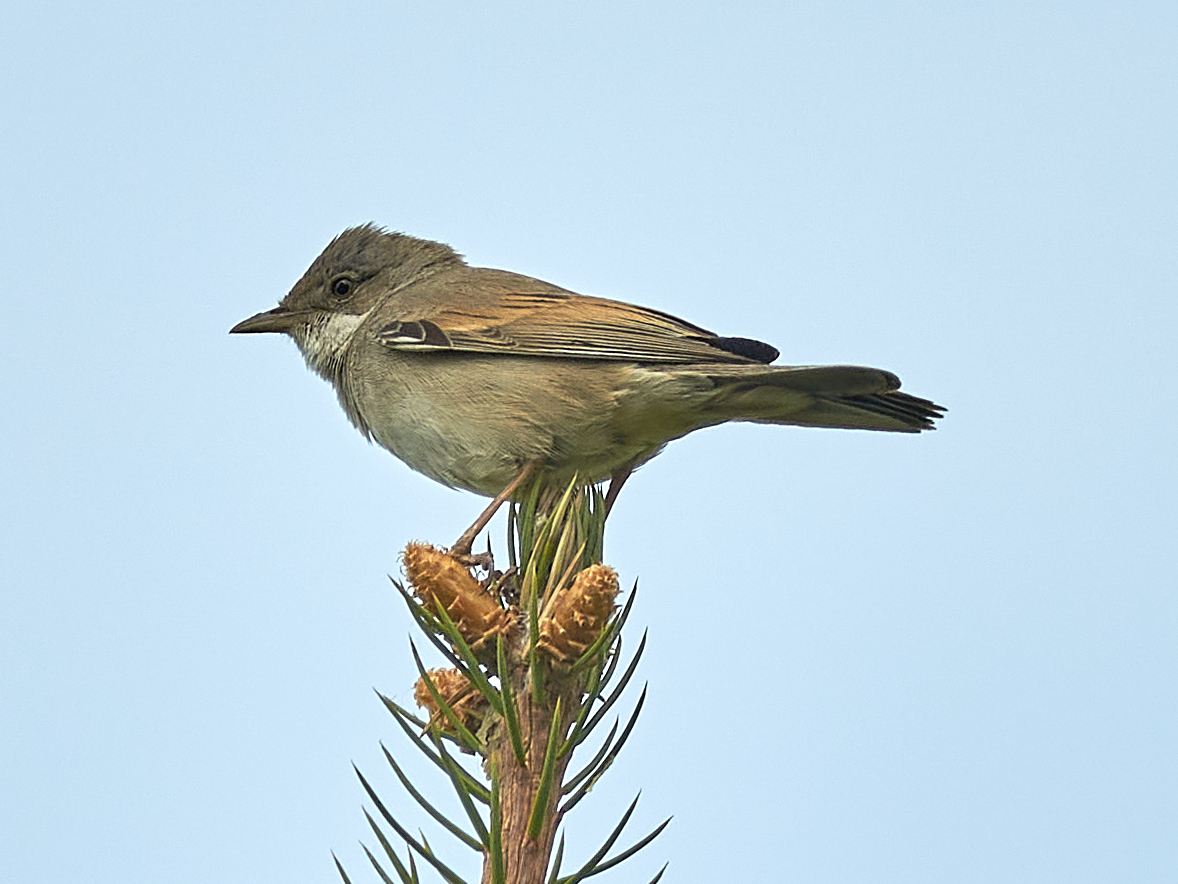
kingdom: Animalia
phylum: Chordata
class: Aves
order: Passeriformes
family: Sylviidae
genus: Sylvia
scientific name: Sylvia communis
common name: Common whitethroat
